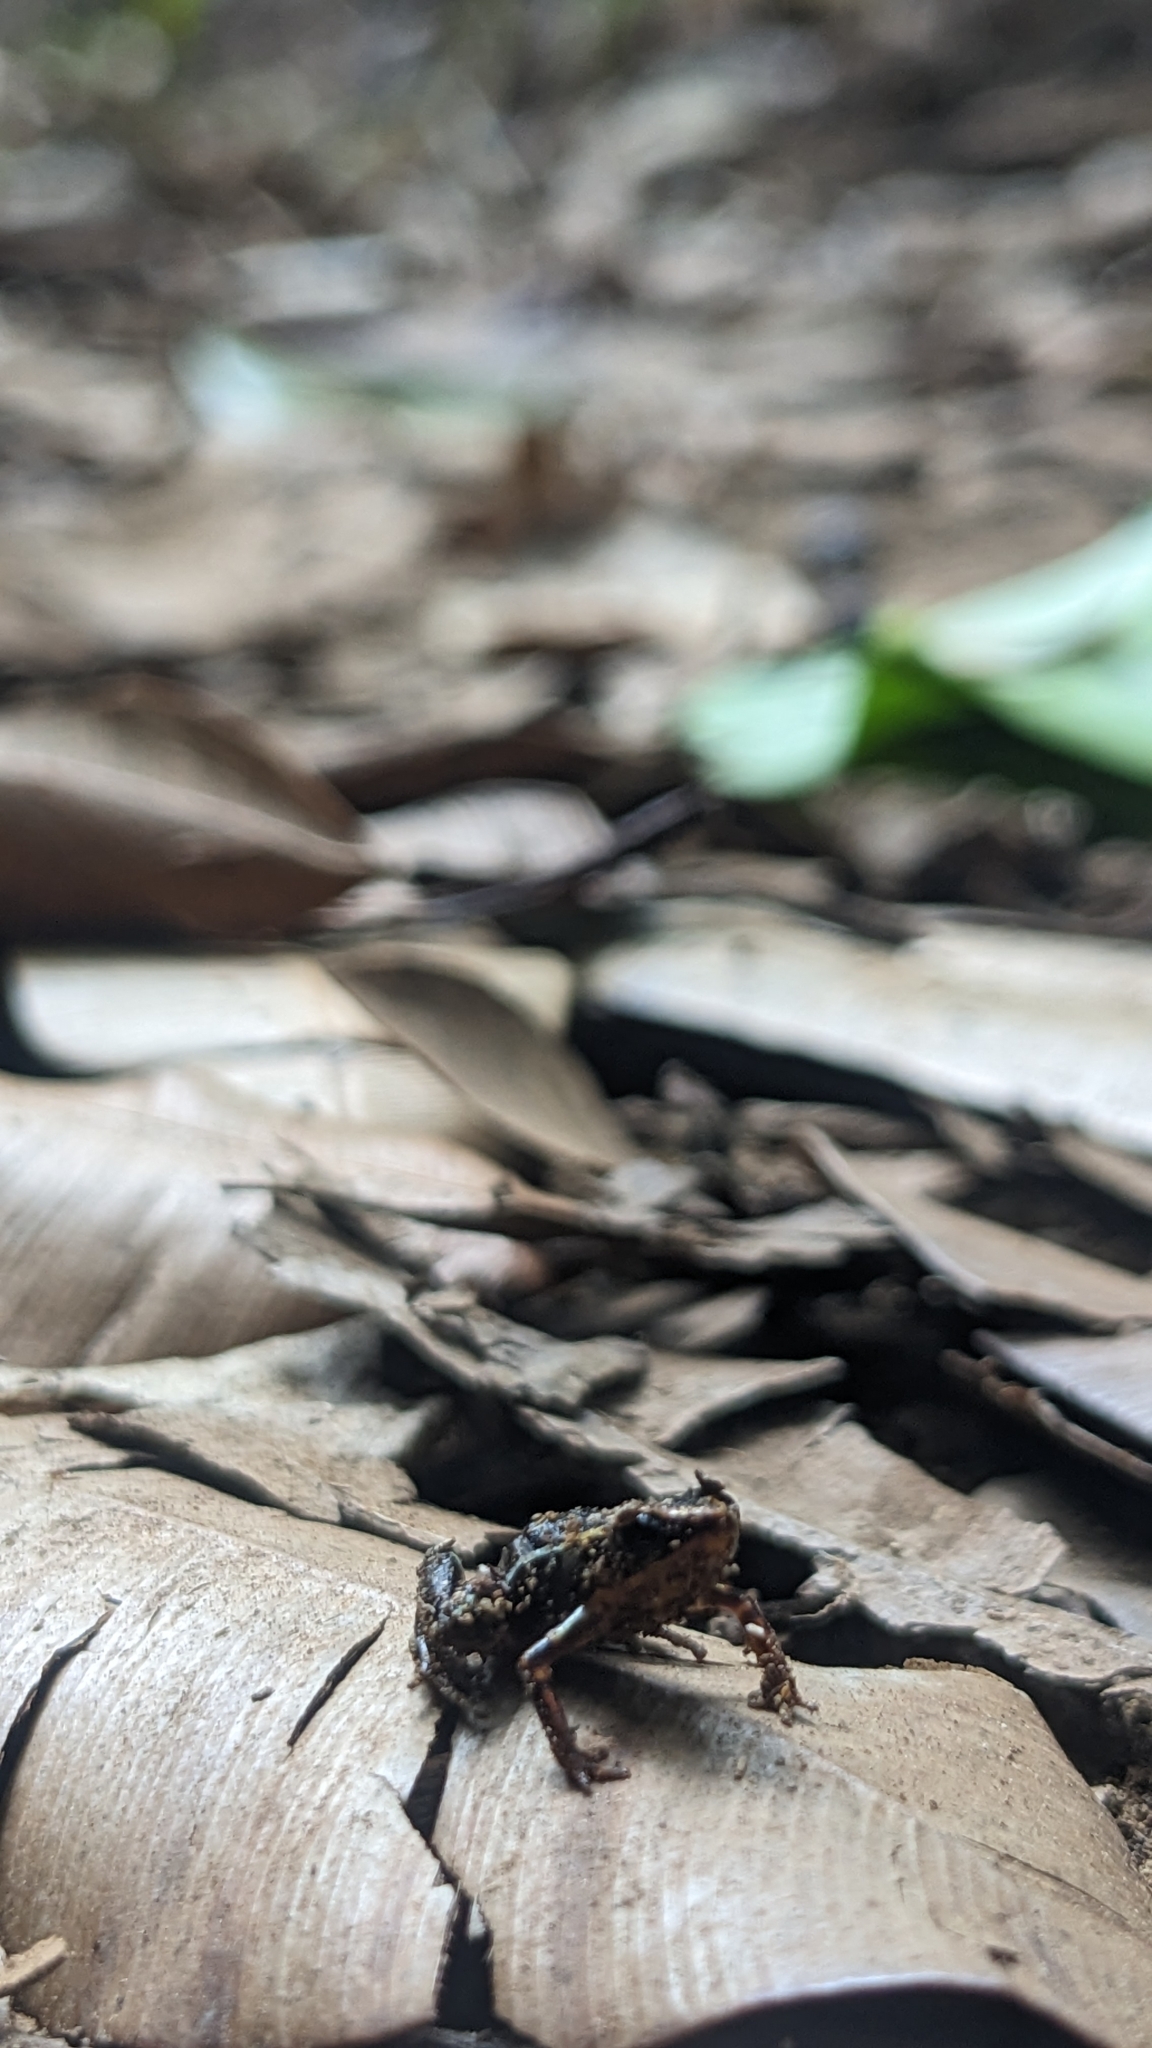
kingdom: Animalia
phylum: Chordata
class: Amphibia
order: Anura
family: Eleutherodactylidae
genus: Eleutherodactylus
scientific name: Eleutherodactylus iberia
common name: Monte iberia dwarf frog
